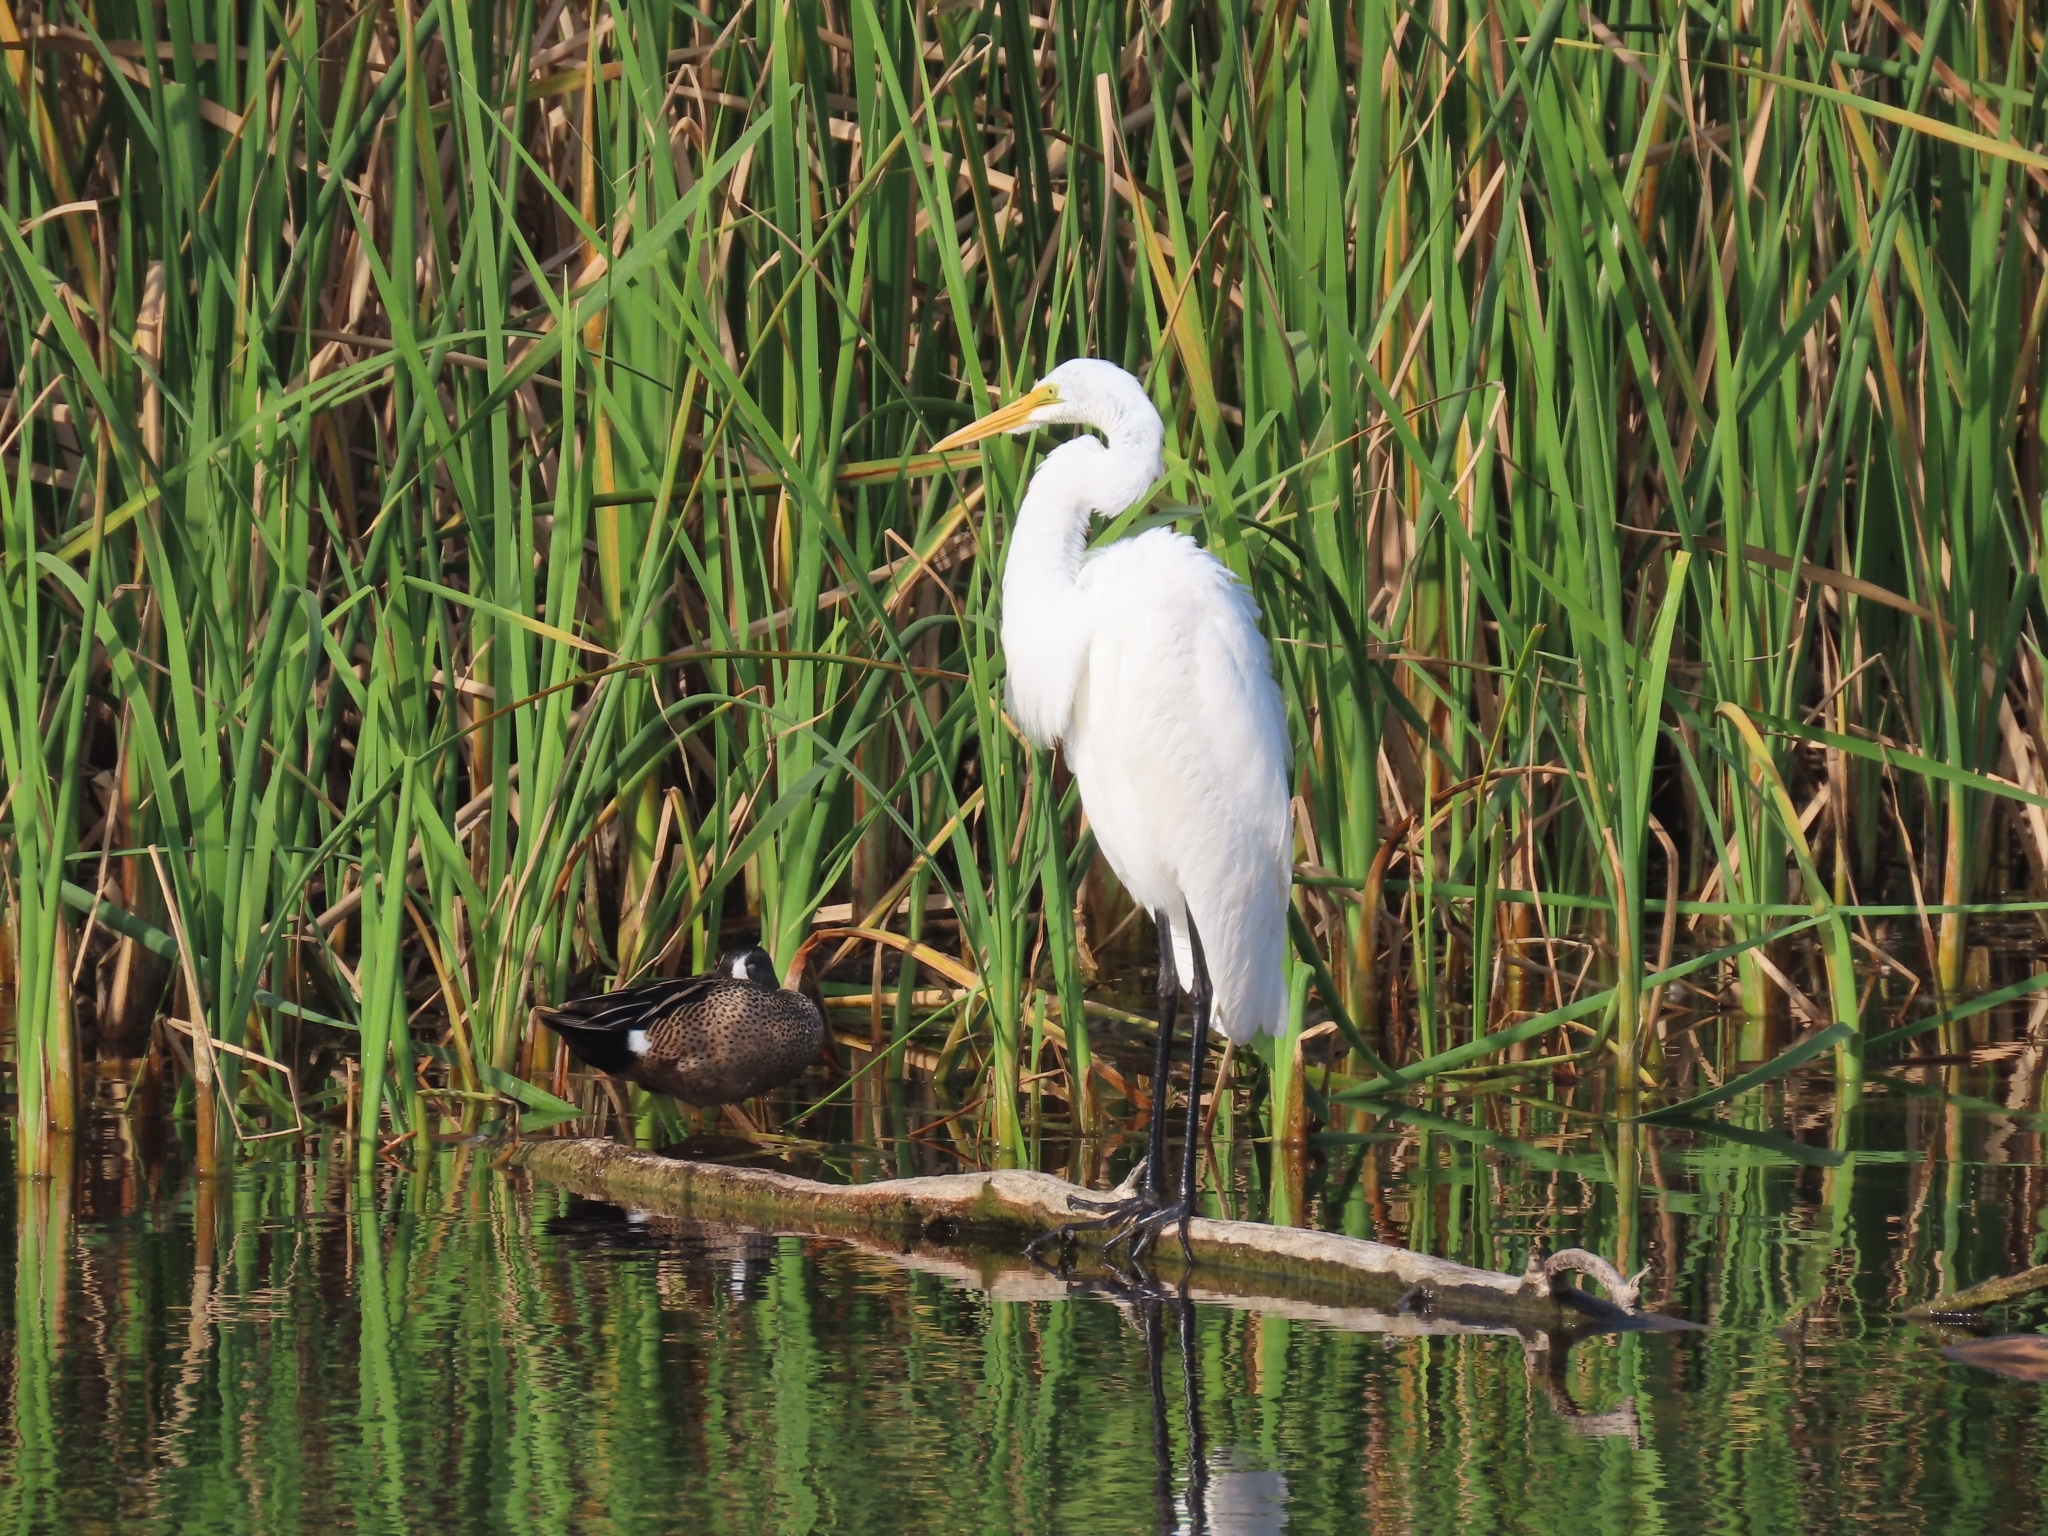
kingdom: Animalia
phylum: Chordata
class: Aves
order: Pelecaniformes
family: Ardeidae
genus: Ardea
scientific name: Ardea alba
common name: Great egret
